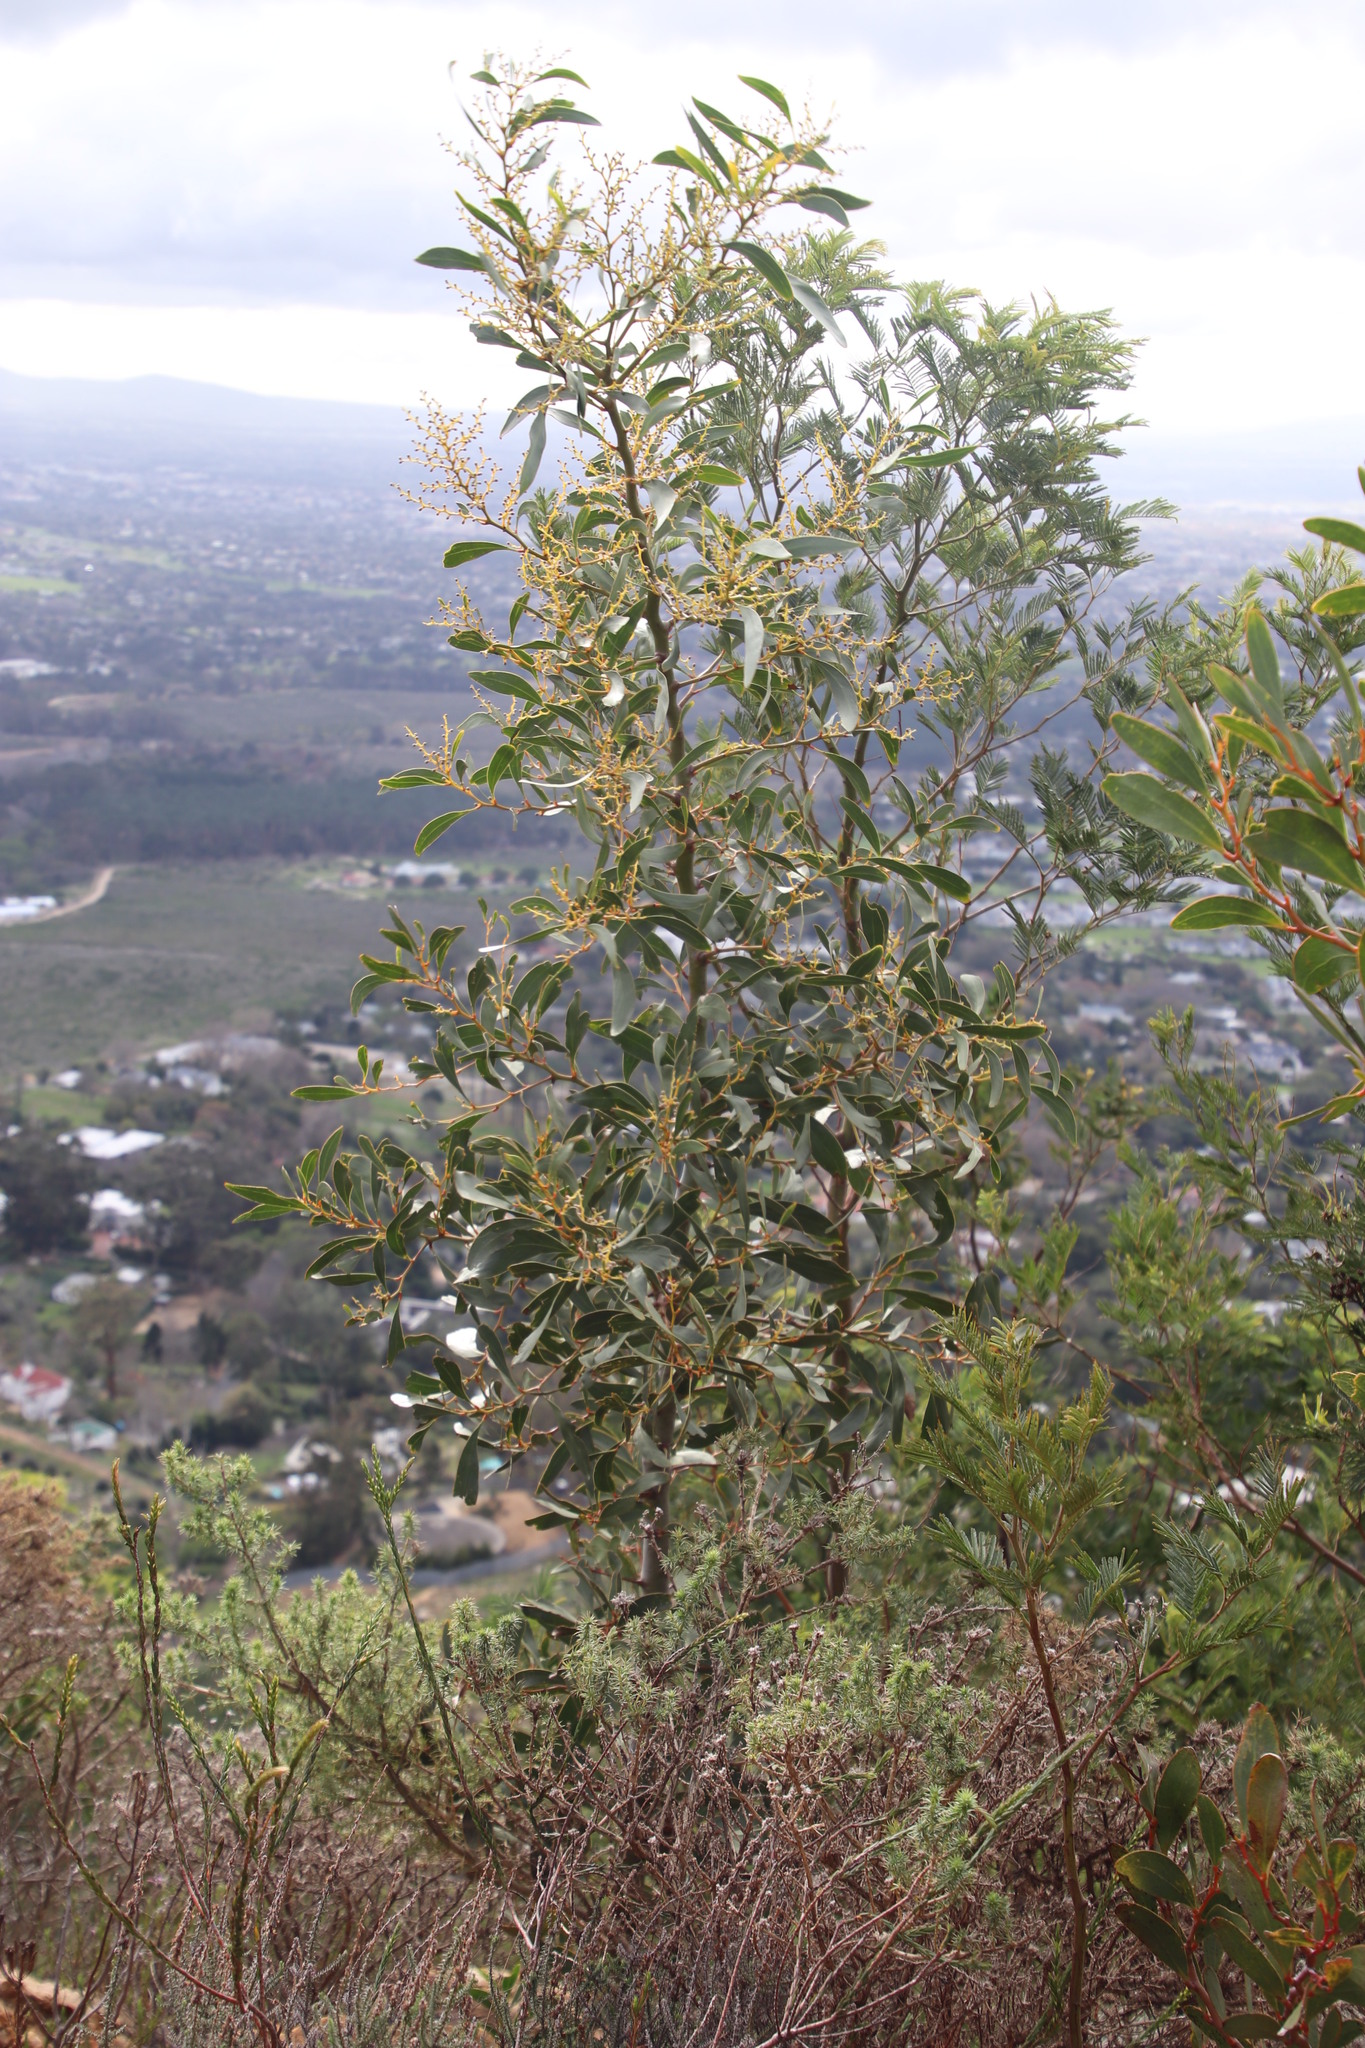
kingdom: Plantae
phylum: Tracheophyta
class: Magnoliopsida
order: Fabales
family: Fabaceae
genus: Acacia
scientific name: Acacia pycnantha
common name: Golden wattle
